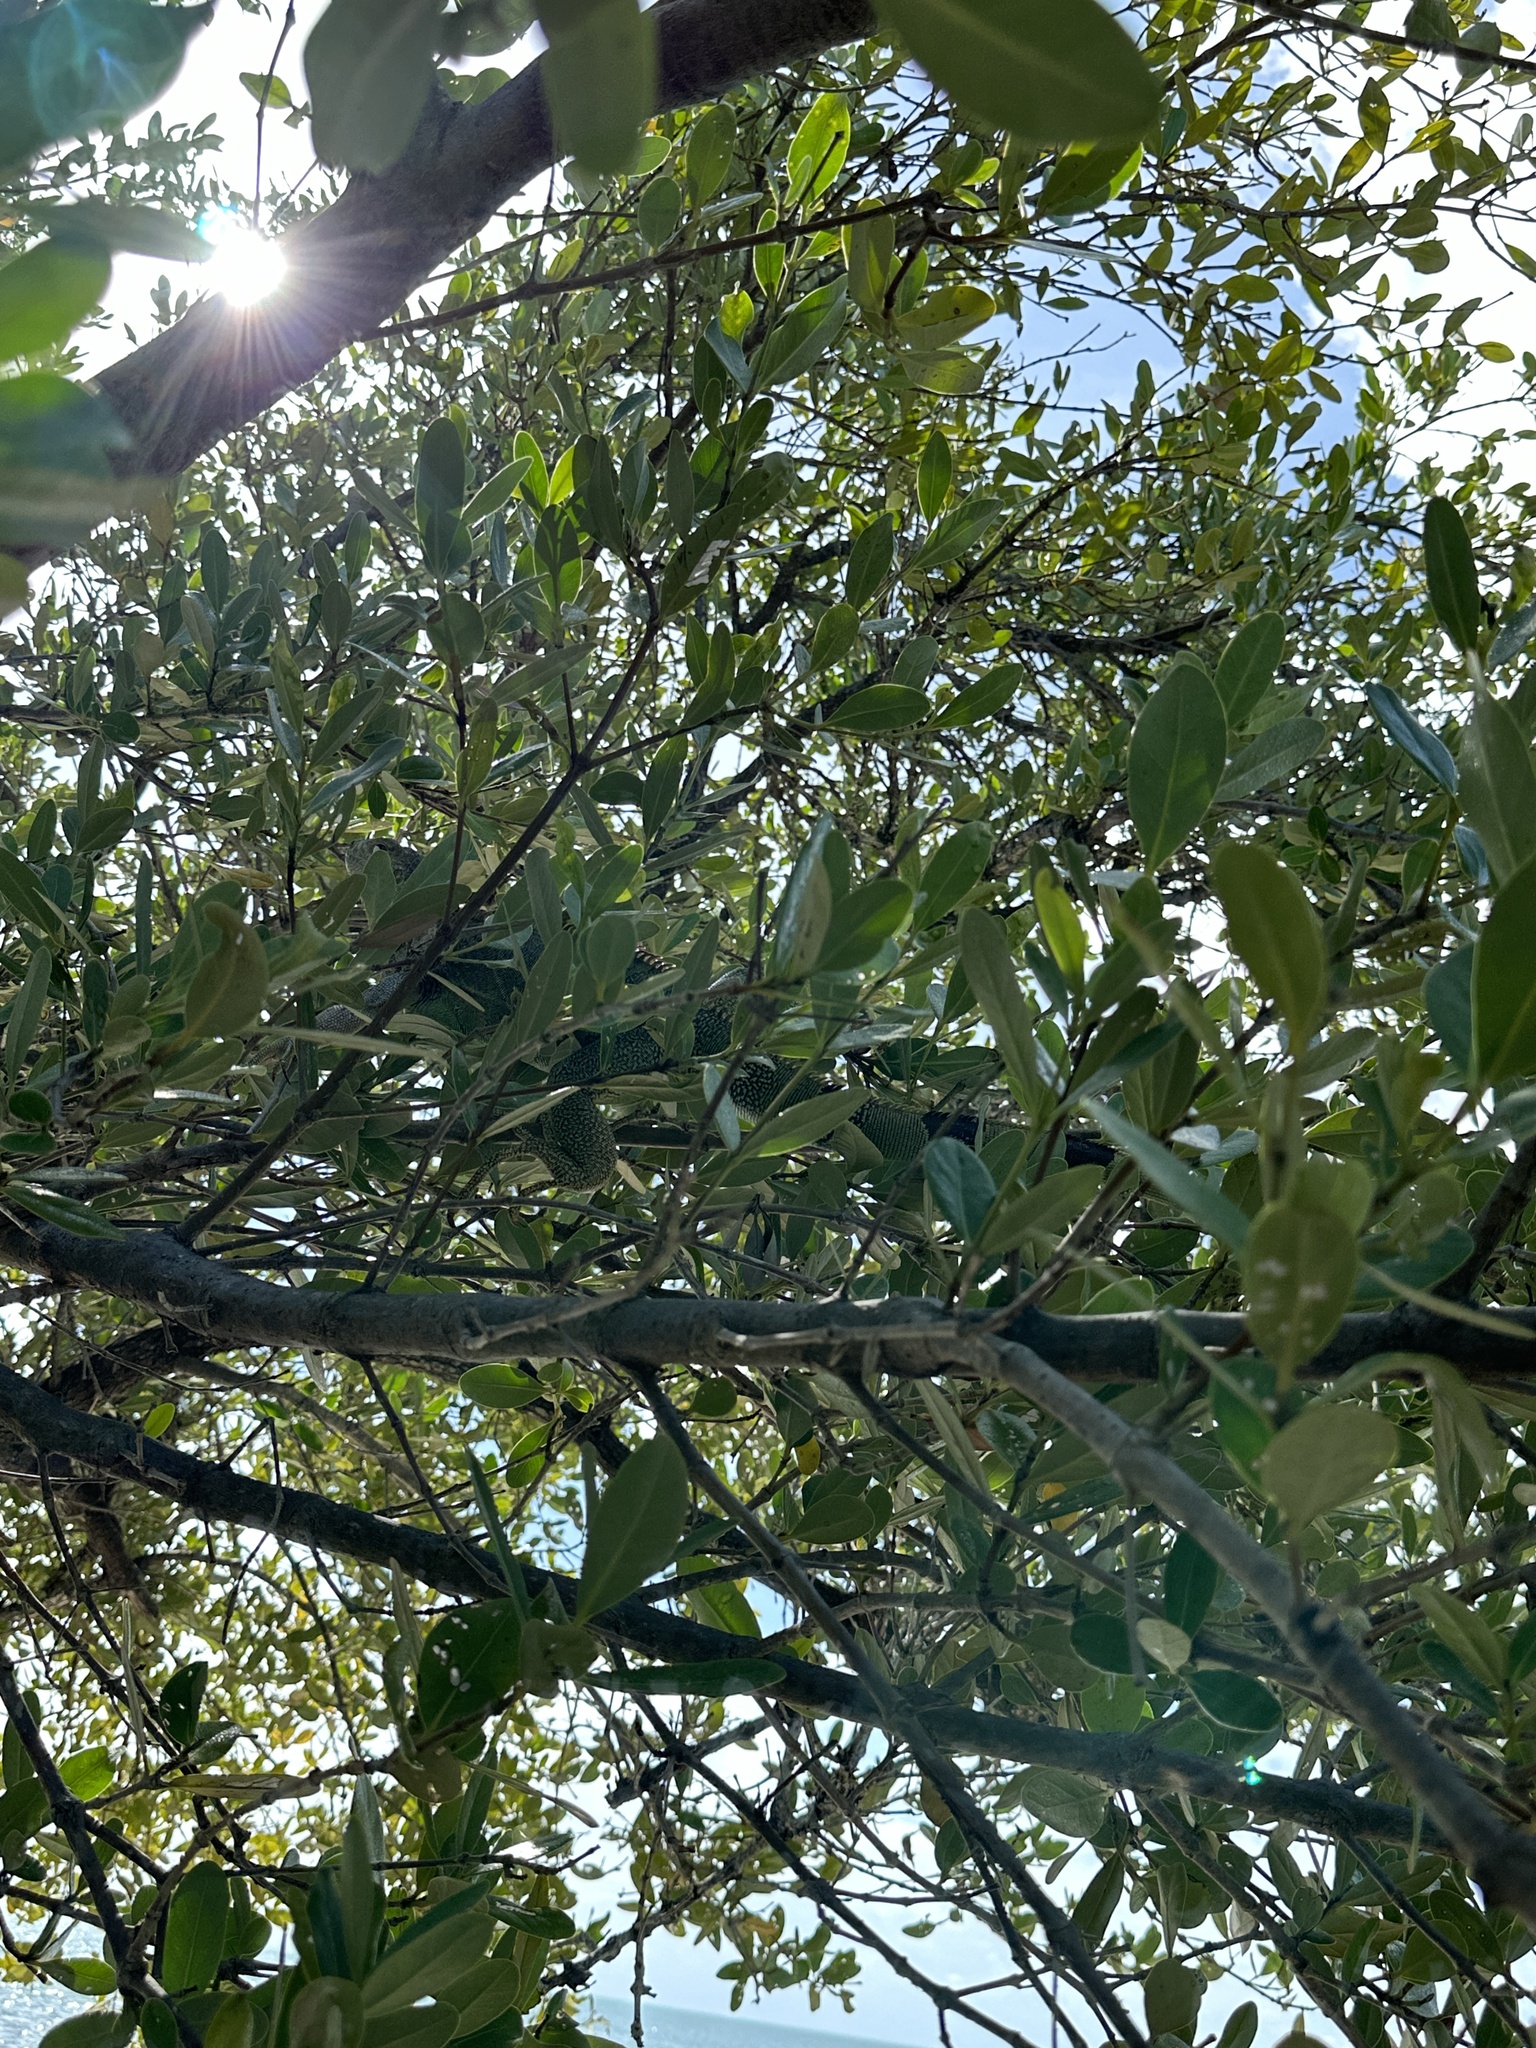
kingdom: Animalia
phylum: Chordata
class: Squamata
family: Iguanidae
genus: Iguana
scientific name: Iguana iguana
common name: Green iguana
